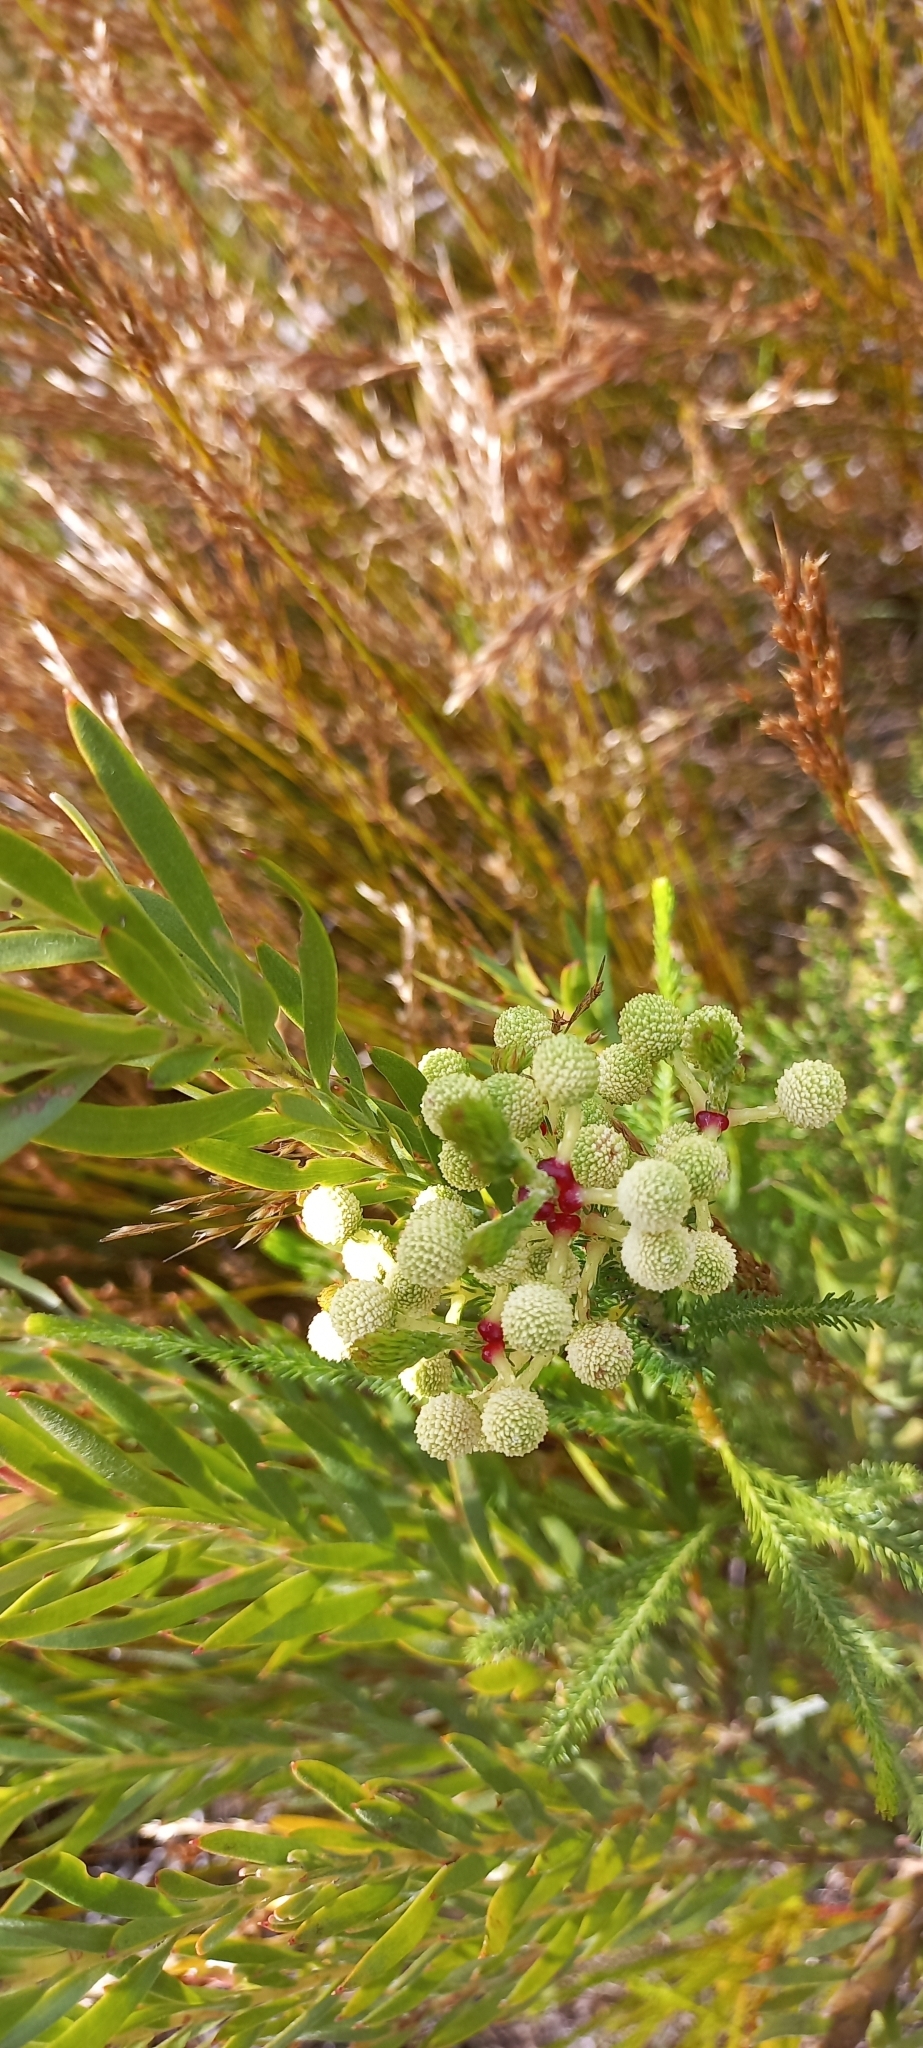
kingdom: Plantae
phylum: Tracheophyta
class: Magnoliopsida
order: Bruniales
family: Bruniaceae
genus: Berzelia
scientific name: Berzelia lanuginosa
